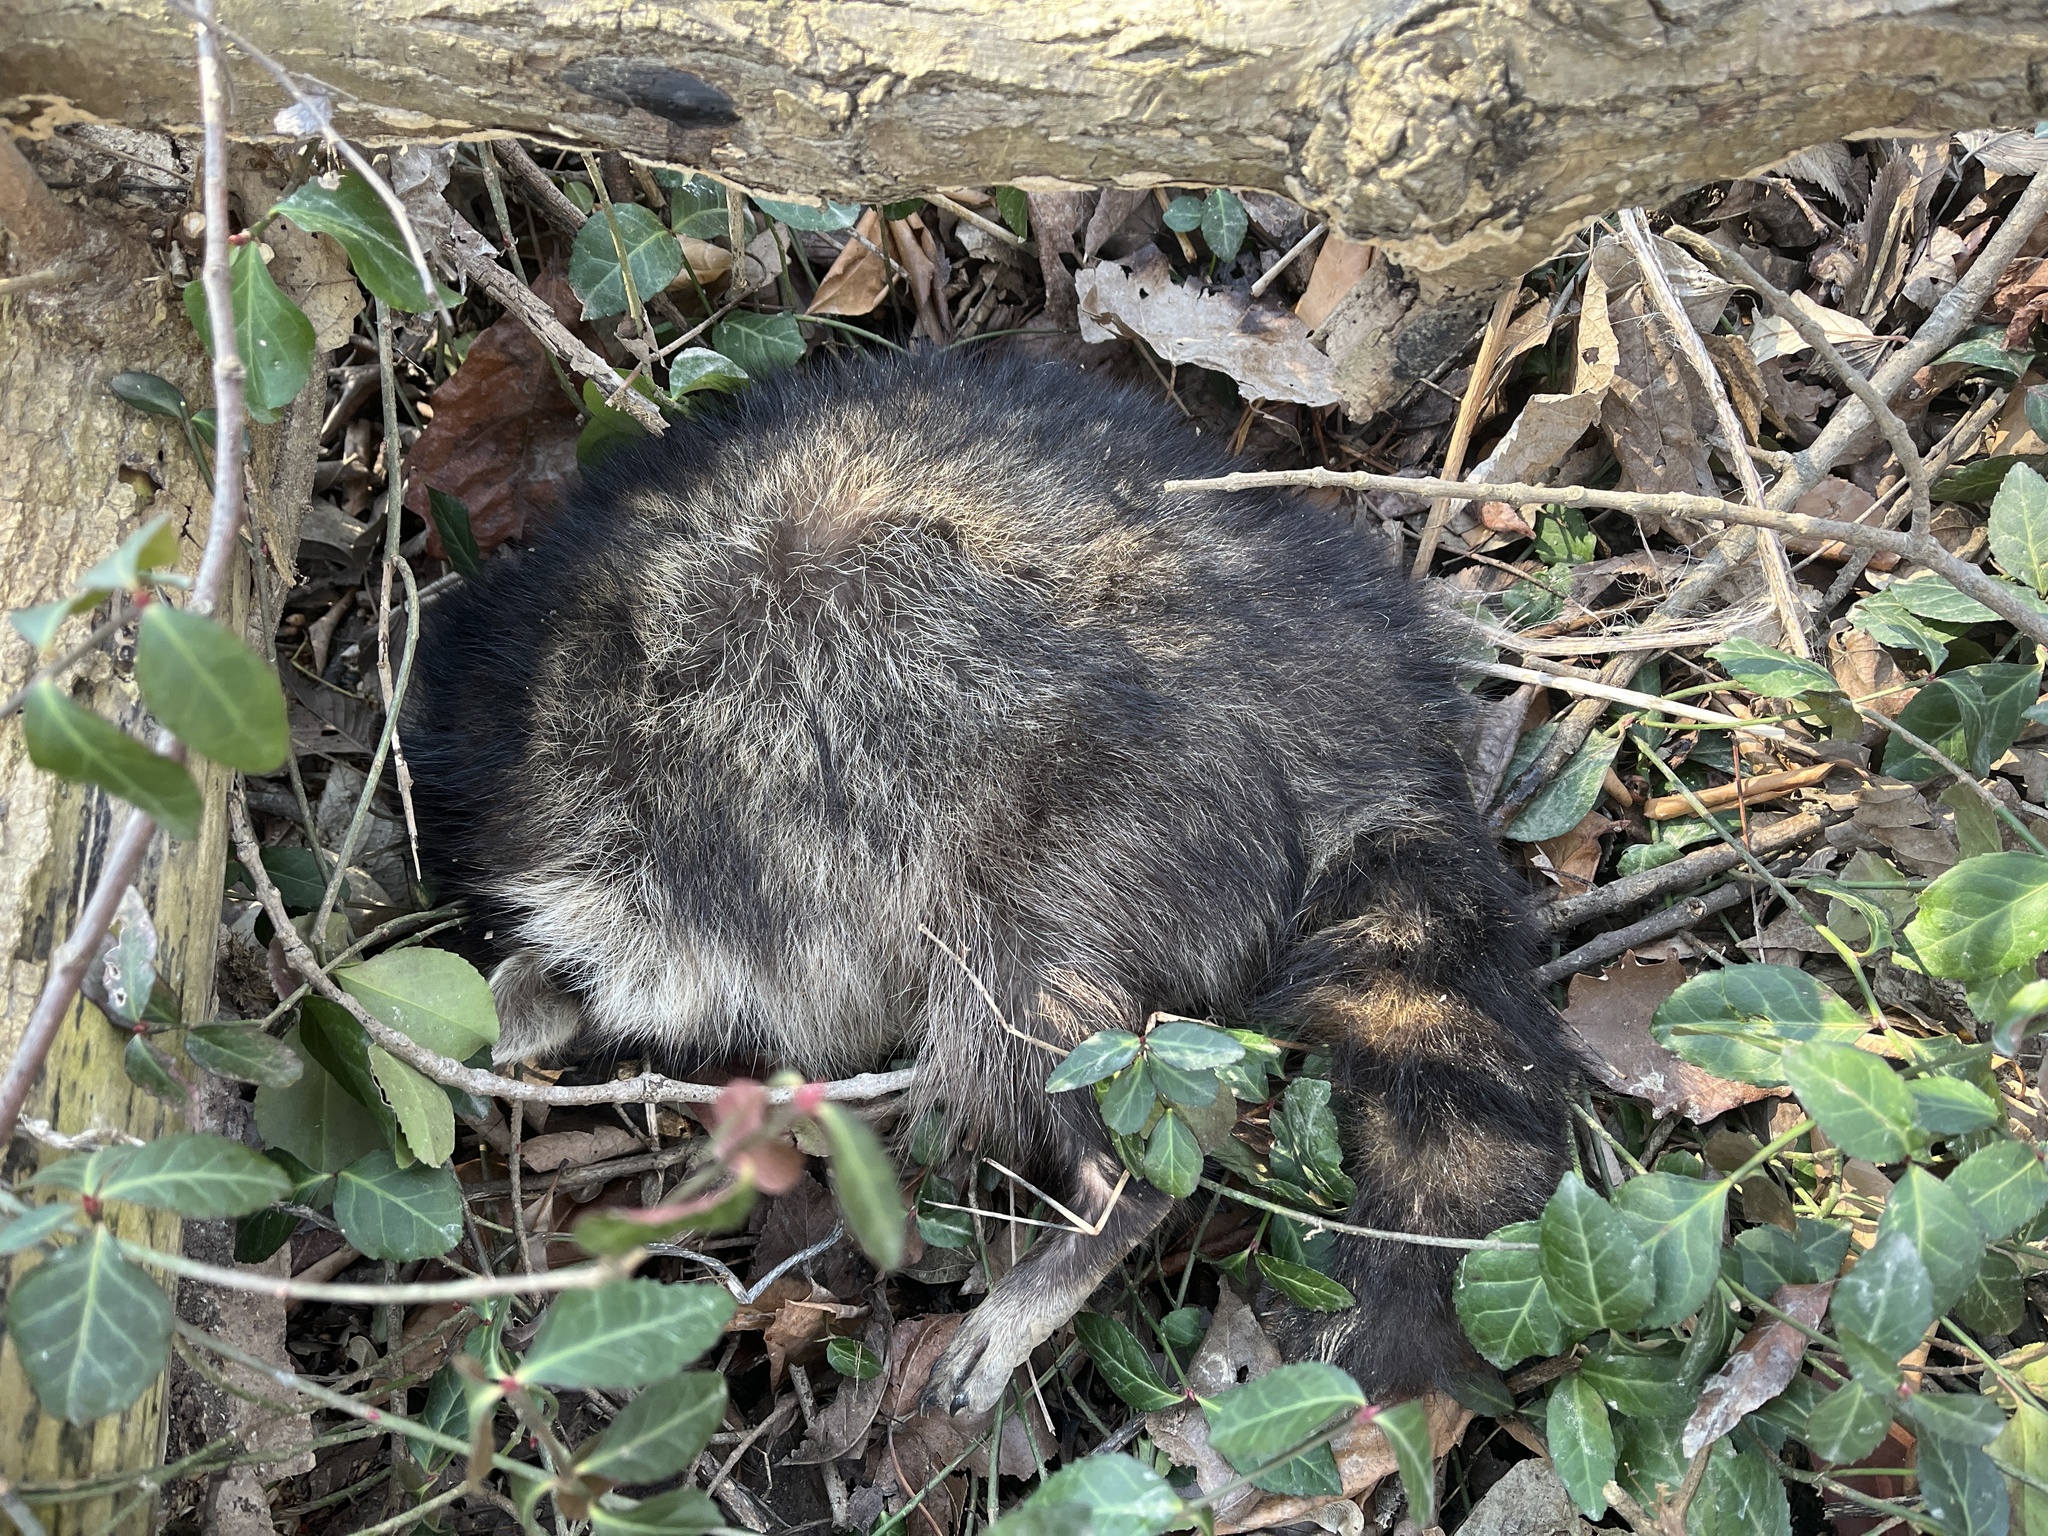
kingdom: Animalia
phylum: Chordata
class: Mammalia
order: Carnivora
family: Procyonidae
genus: Procyon
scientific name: Procyon lotor
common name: Raccoon
